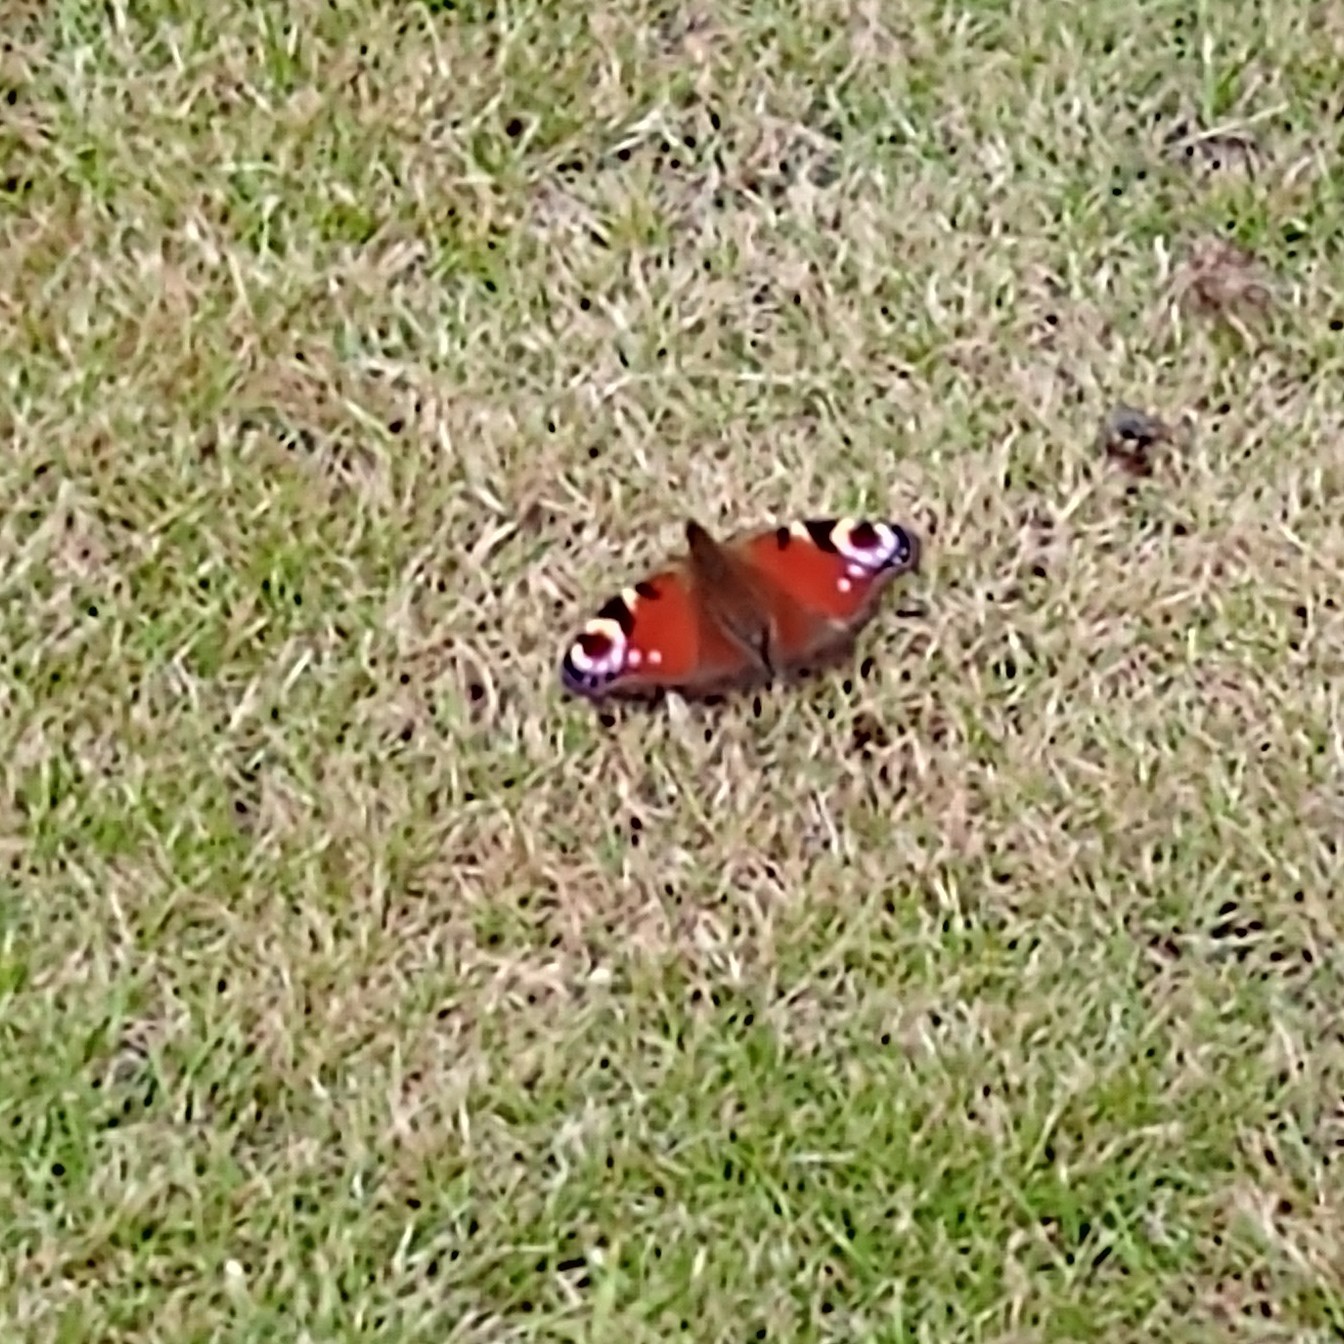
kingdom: Animalia
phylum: Arthropoda
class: Insecta
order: Lepidoptera
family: Nymphalidae
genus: Aglais
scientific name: Aglais io
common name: Peacock
